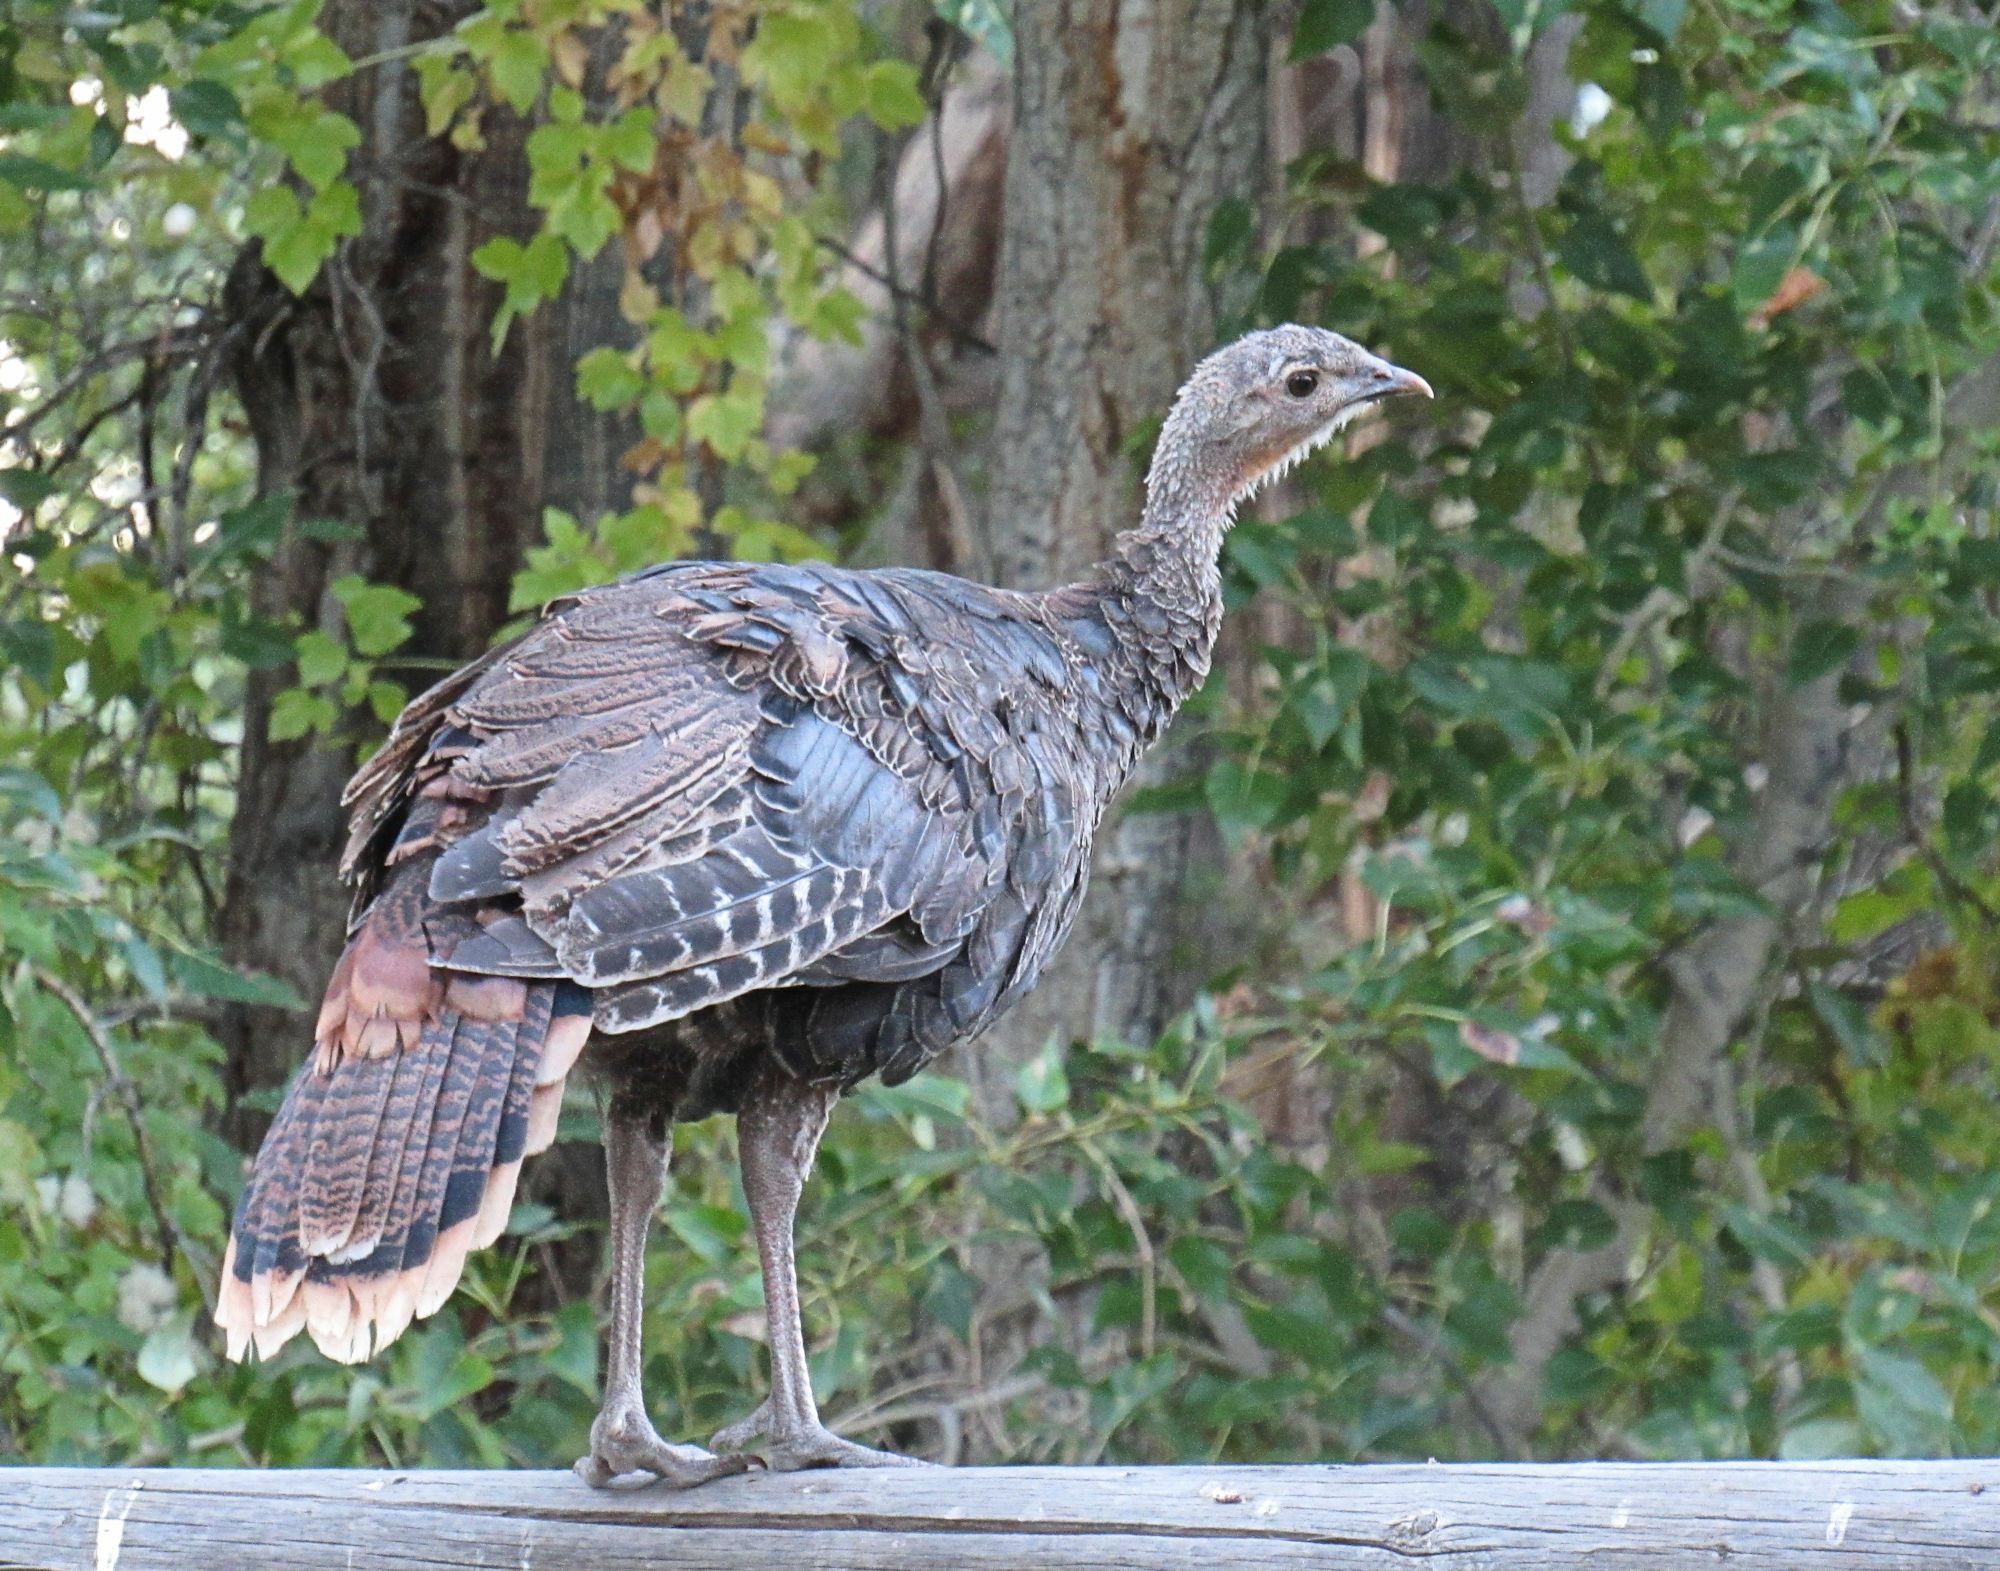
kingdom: Animalia
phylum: Chordata
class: Aves
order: Galliformes
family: Phasianidae
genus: Meleagris
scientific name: Meleagris gallopavo
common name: Wild turkey
